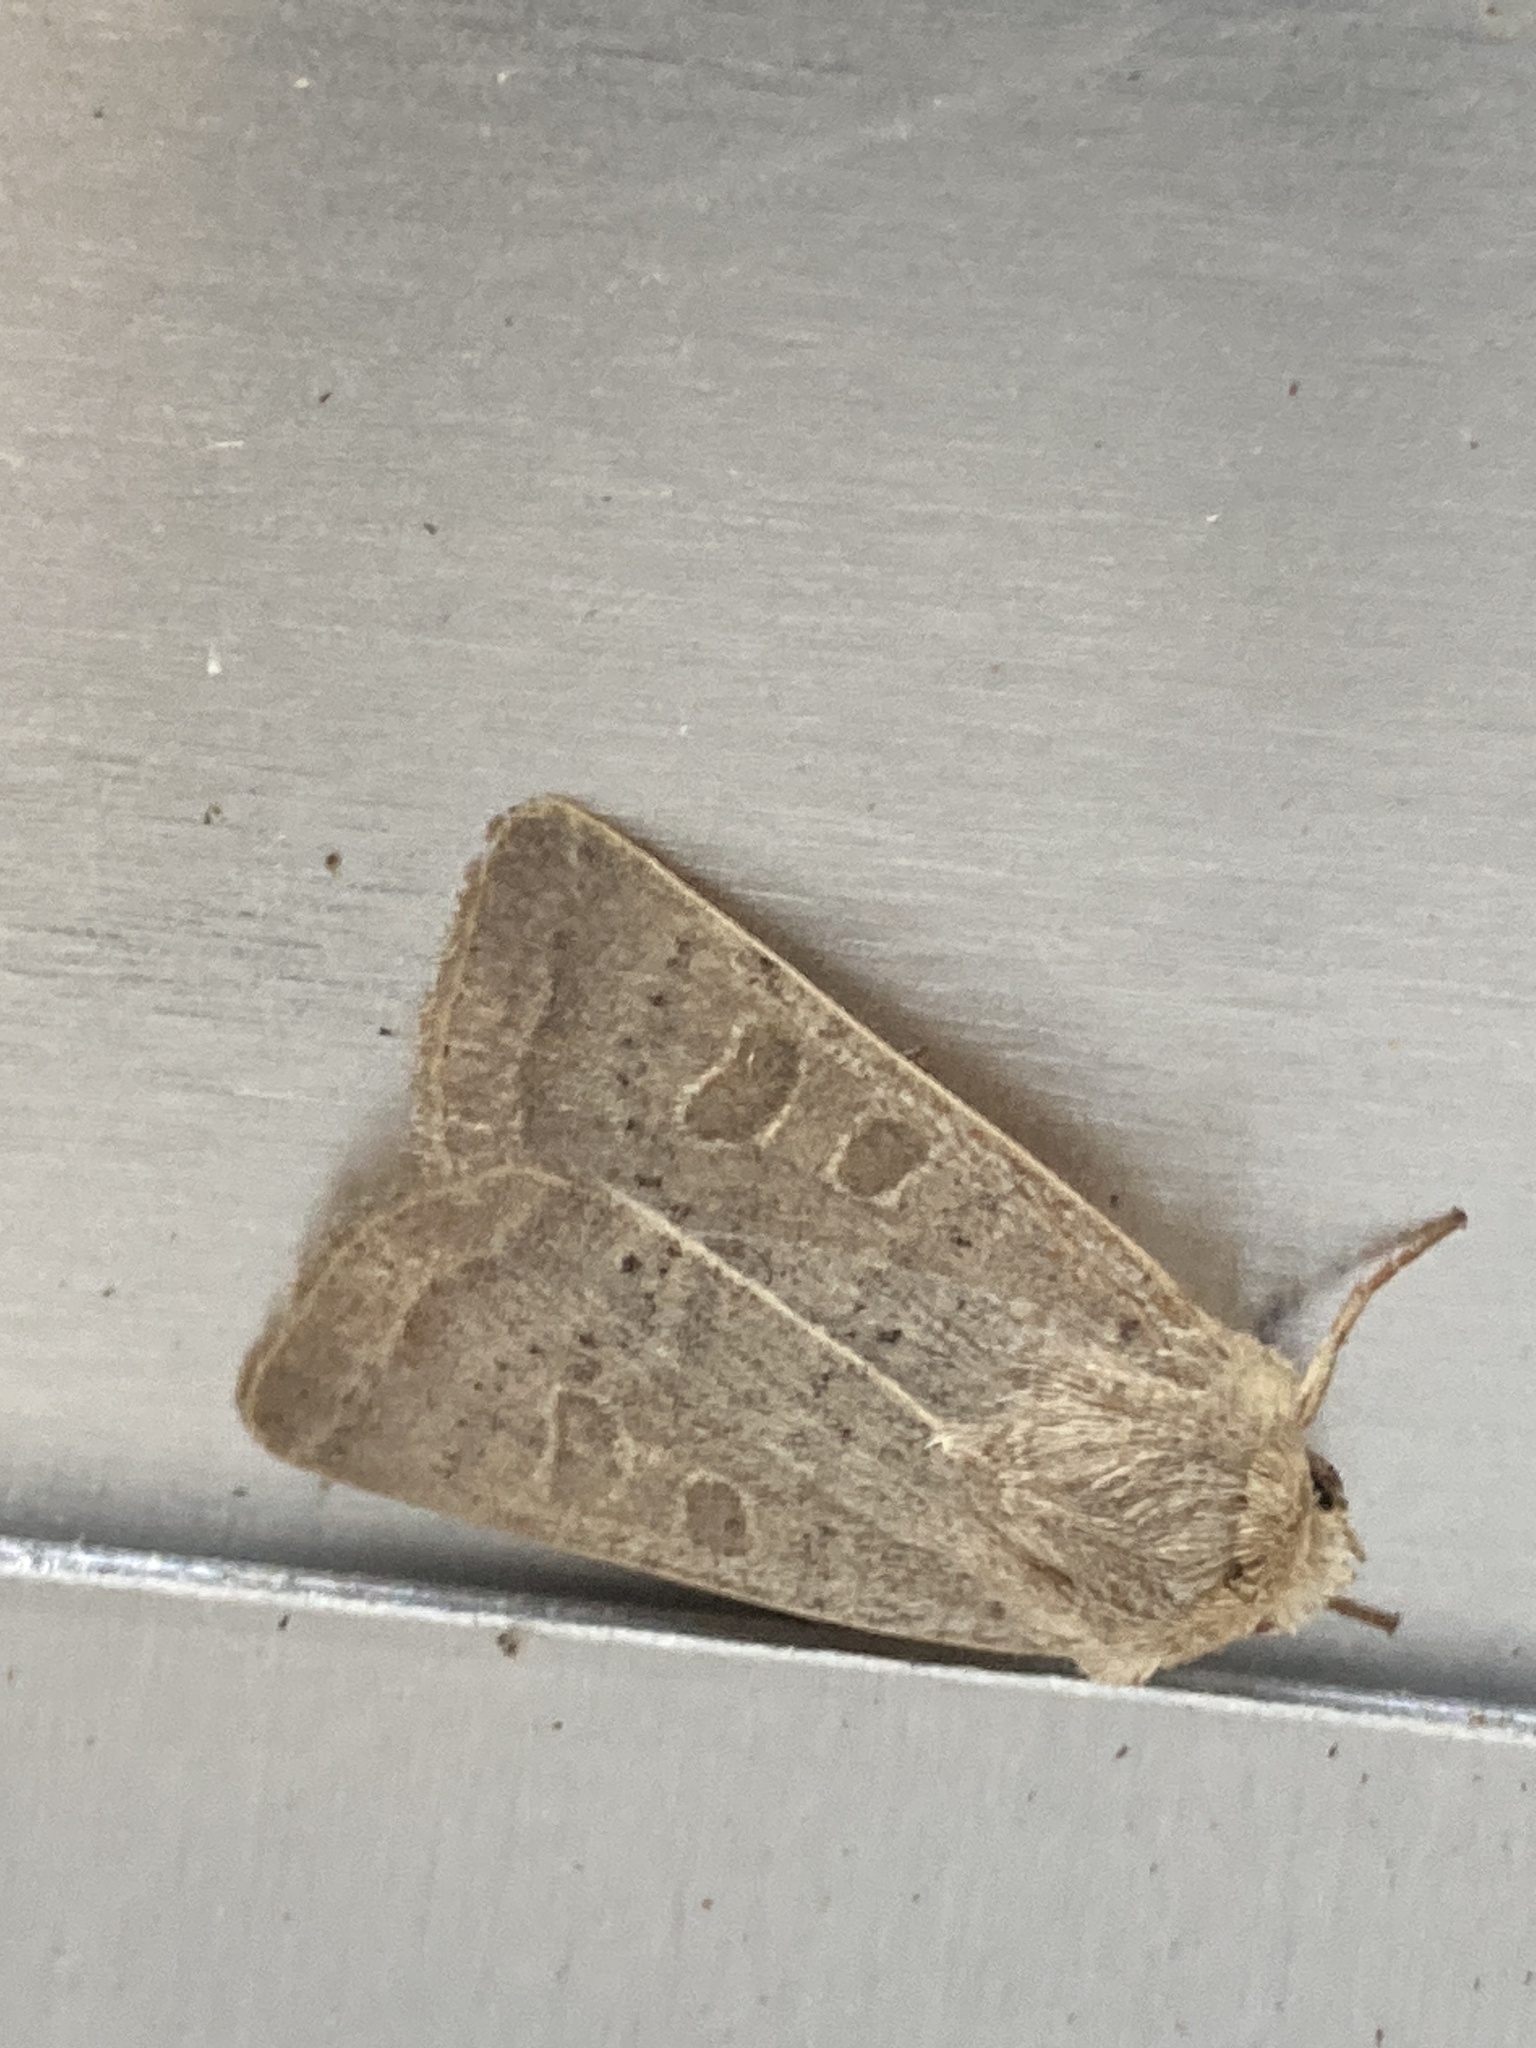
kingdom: Animalia
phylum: Arthropoda
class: Insecta
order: Lepidoptera
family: Noctuidae
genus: Hoplodrina
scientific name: Hoplodrina ambigua
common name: Vine's rustic
